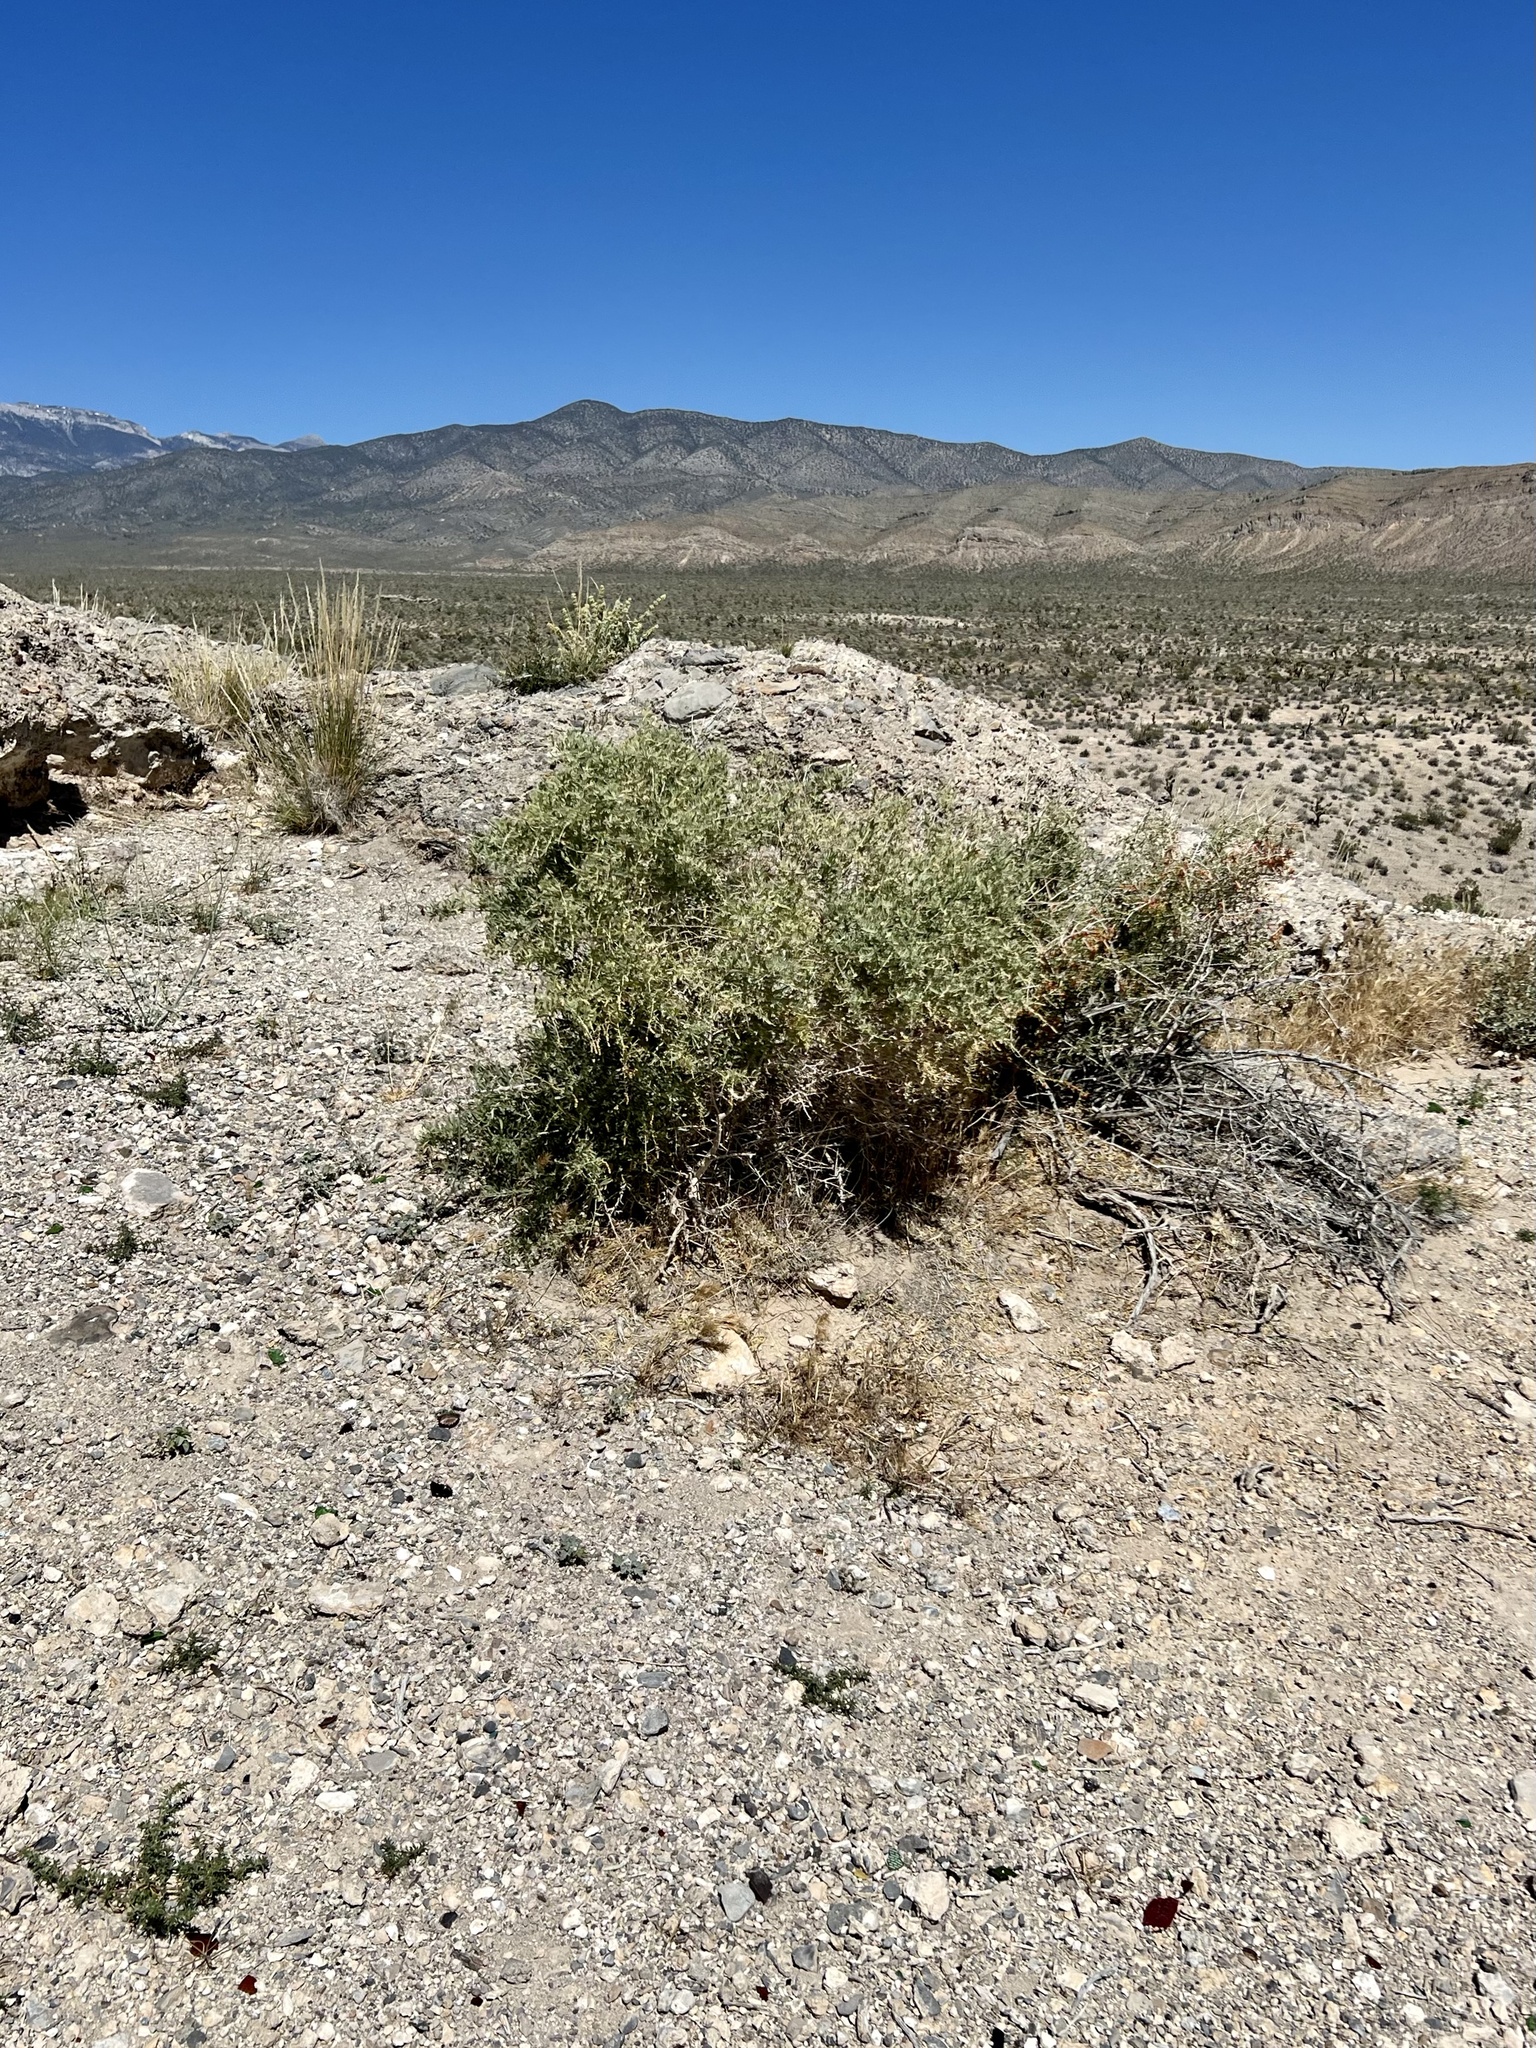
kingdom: Plantae
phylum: Tracheophyta
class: Magnoliopsida
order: Caryophyllales
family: Amaranthaceae
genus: Atriplex
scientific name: Atriplex canescens
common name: Four-wing saltbush
